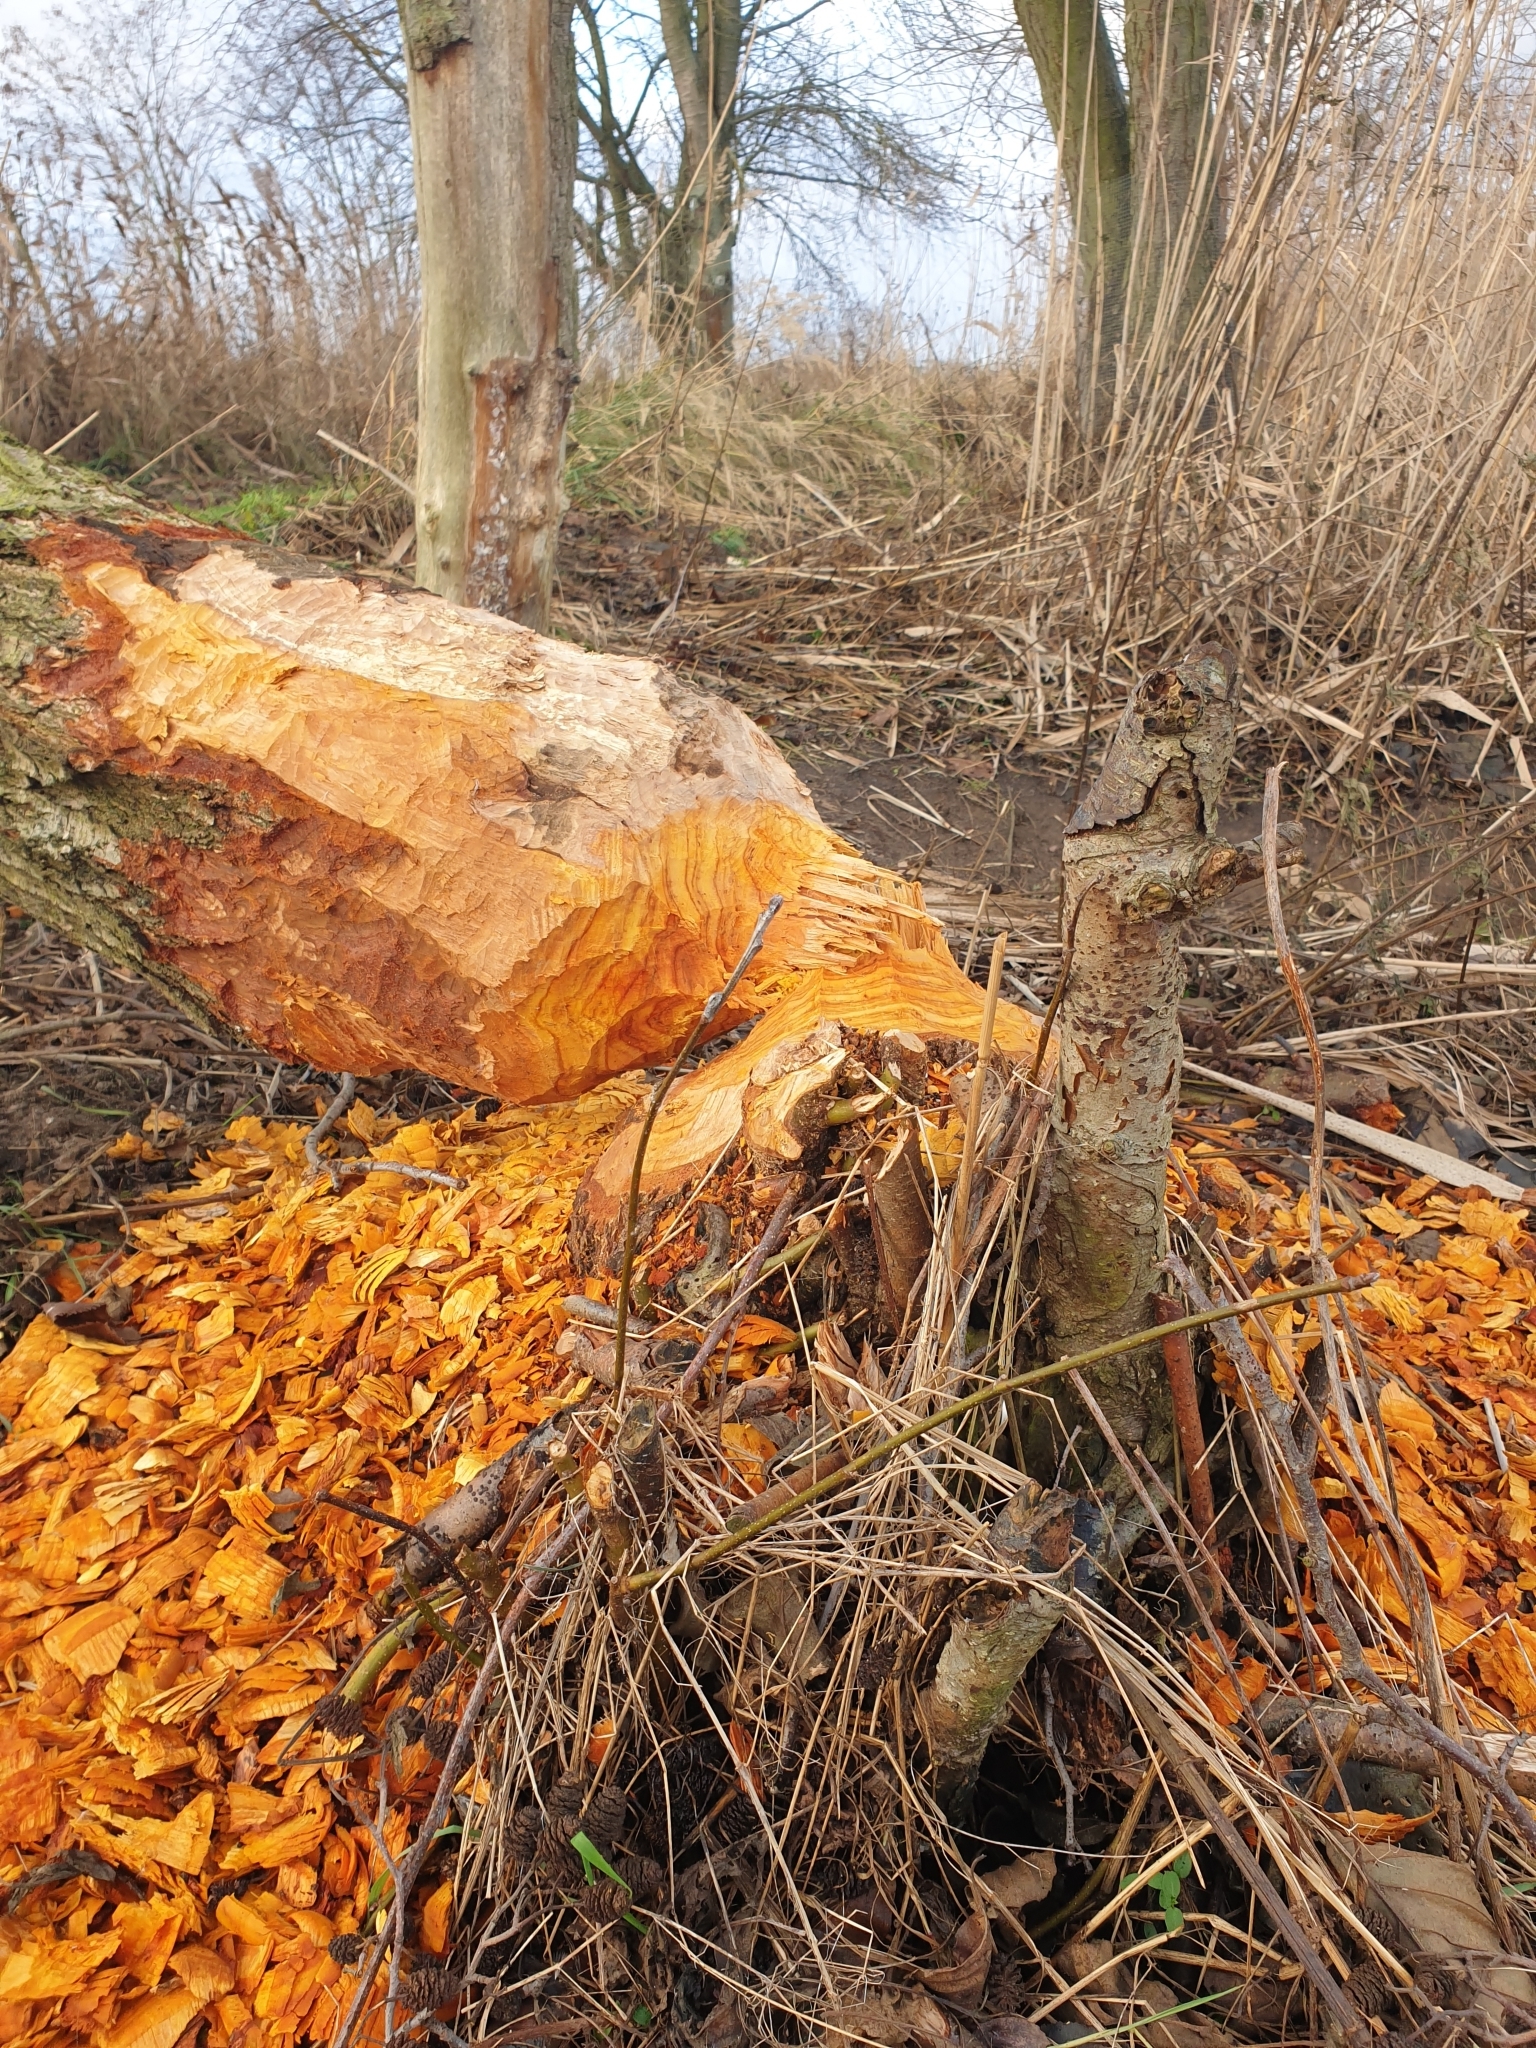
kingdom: Animalia
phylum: Chordata
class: Mammalia
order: Rodentia
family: Castoridae
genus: Castor
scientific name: Castor fiber
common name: Eurasian beaver
